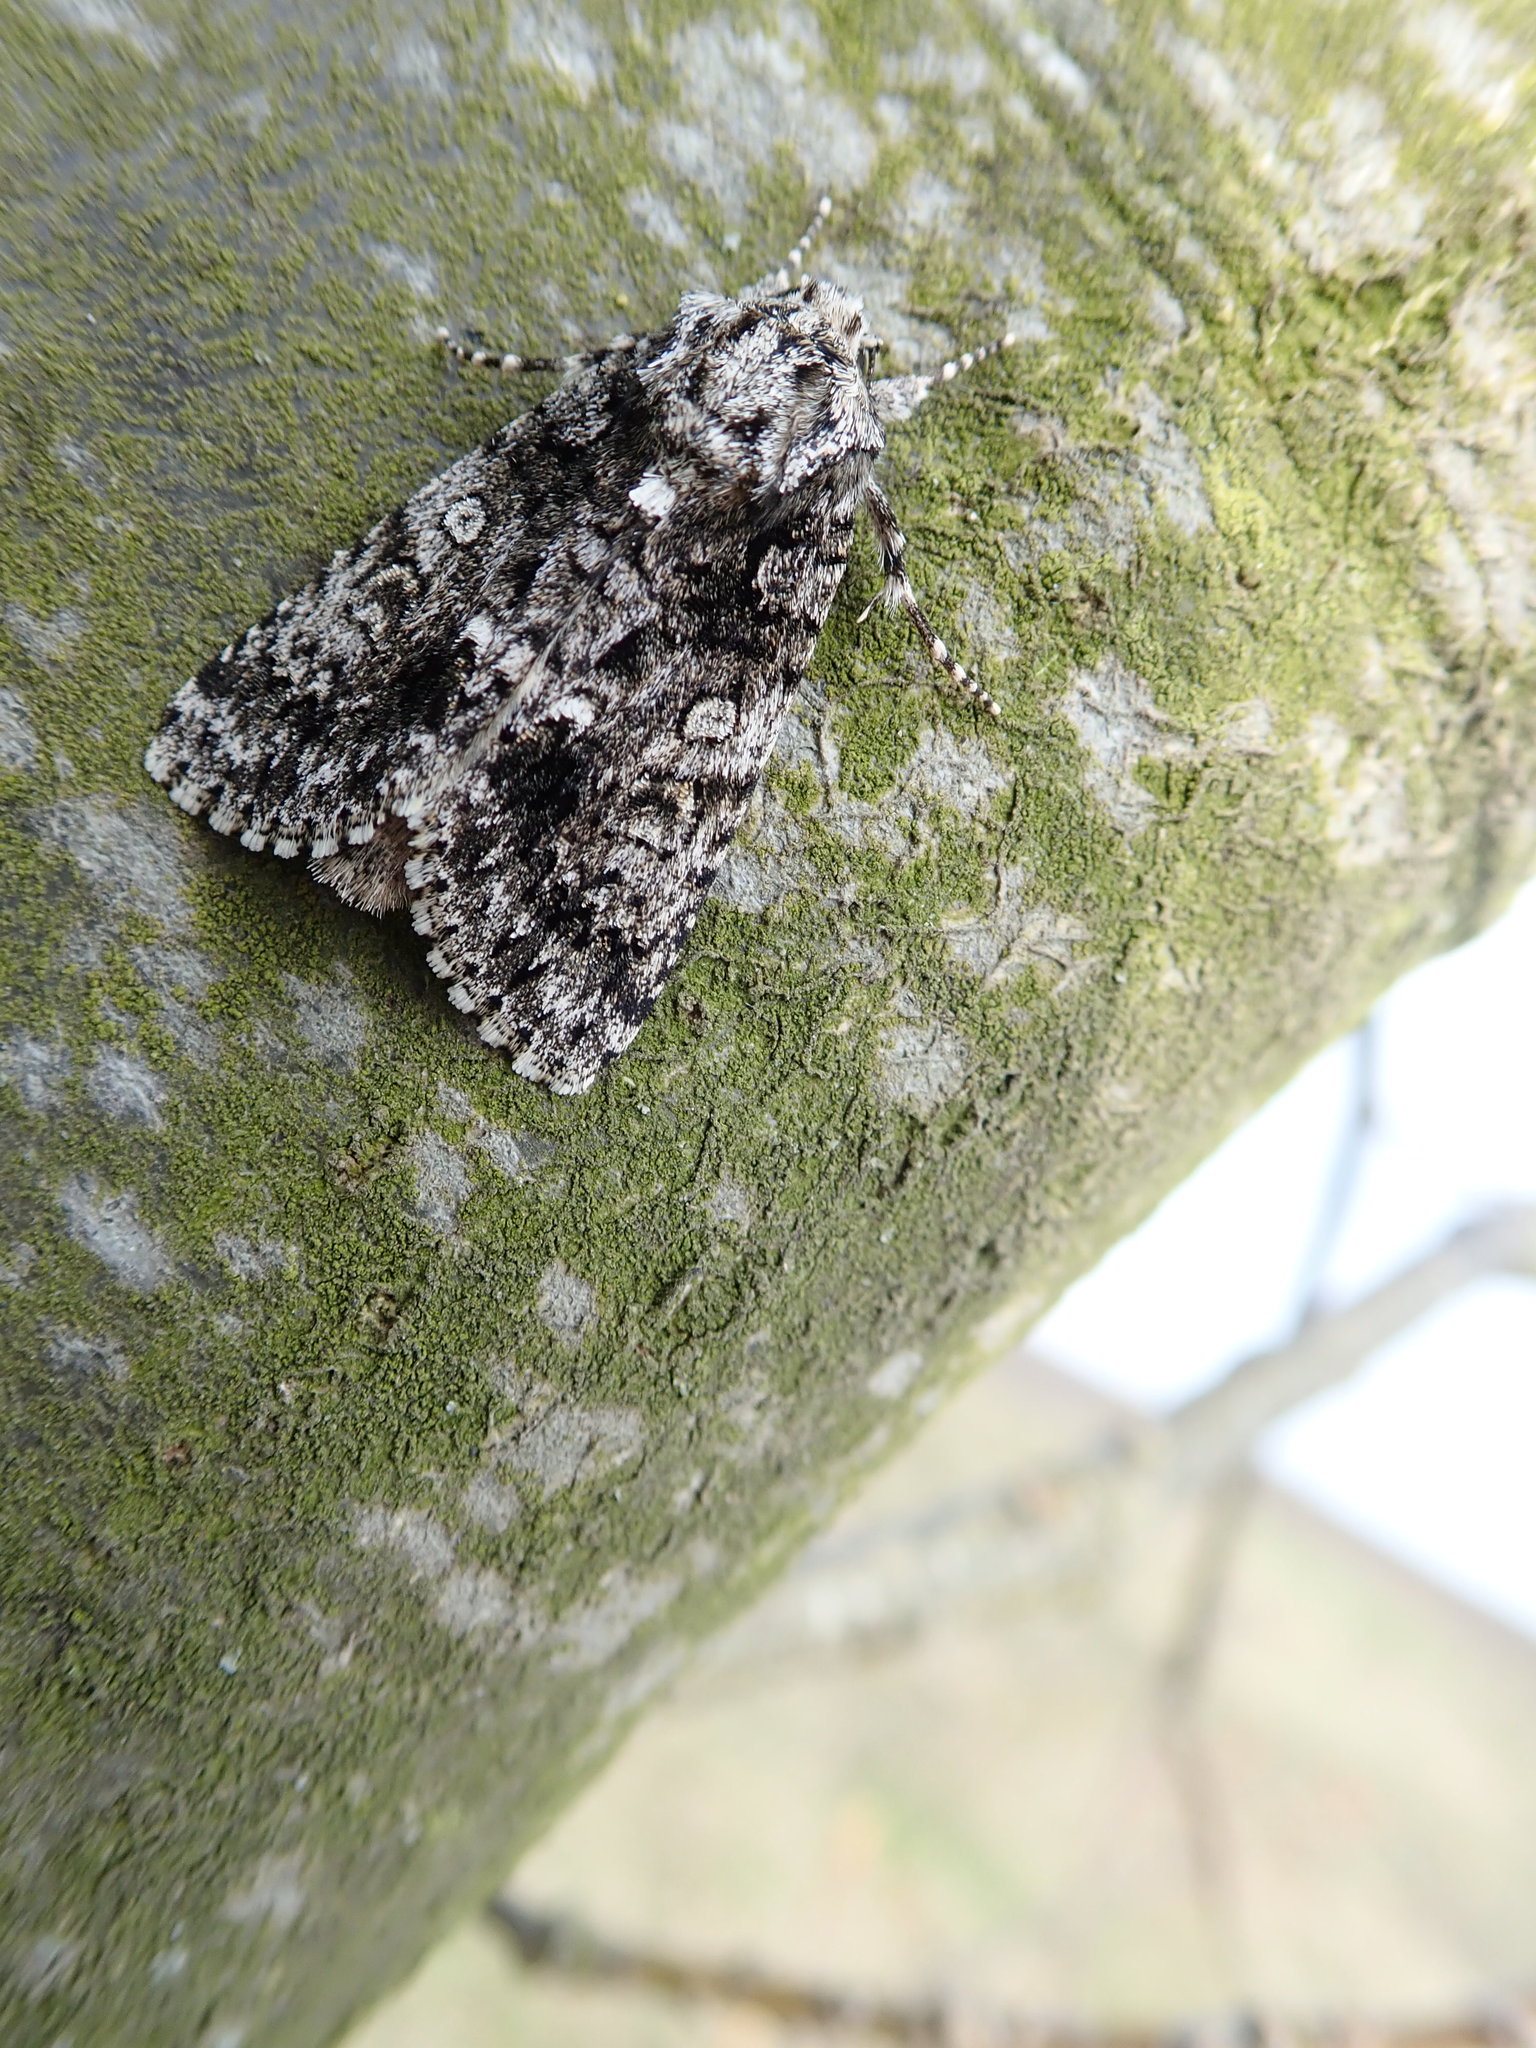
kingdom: Animalia
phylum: Arthropoda
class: Insecta
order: Lepidoptera
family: Noctuidae
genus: Acronicta
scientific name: Acronicta rumicis
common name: Knot grass
